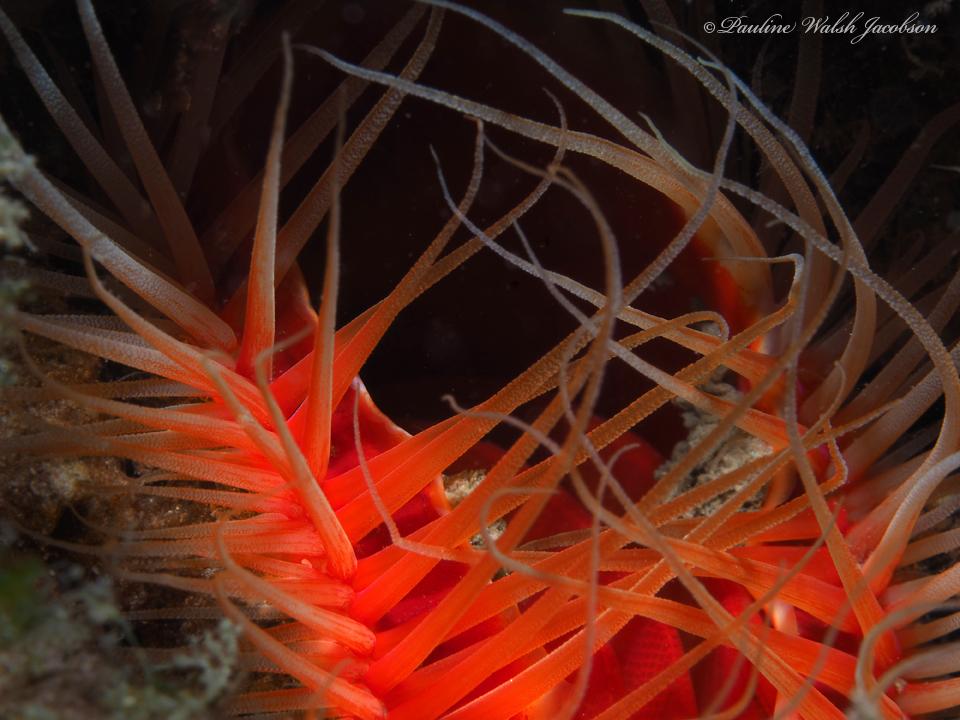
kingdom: Animalia
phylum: Mollusca
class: Bivalvia
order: Limida
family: Limidae
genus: Ctenoides
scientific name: Ctenoides scaber
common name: Rough fileclam
